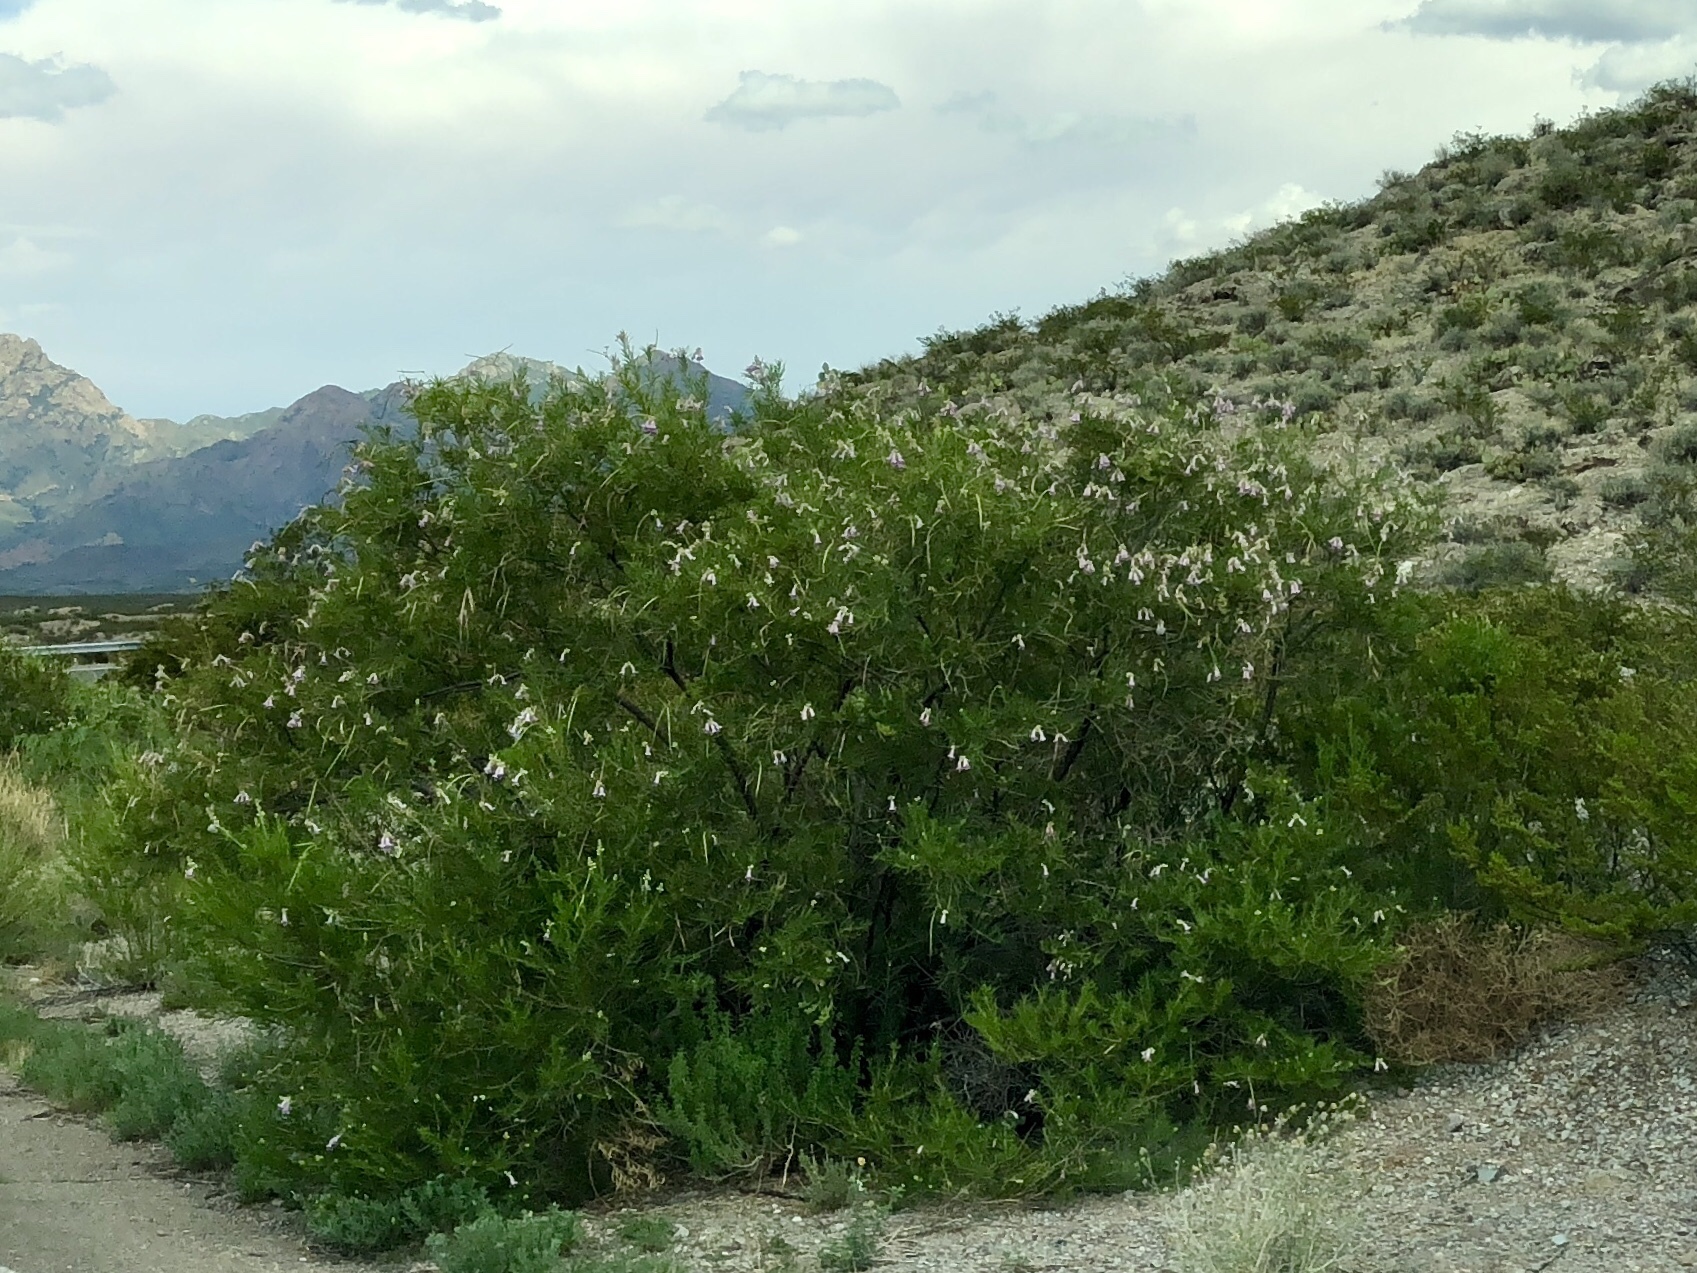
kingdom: Plantae
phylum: Tracheophyta
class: Magnoliopsida
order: Lamiales
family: Bignoniaceae
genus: Chilopsis
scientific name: Chilopsis linearis
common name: Desert-willow
